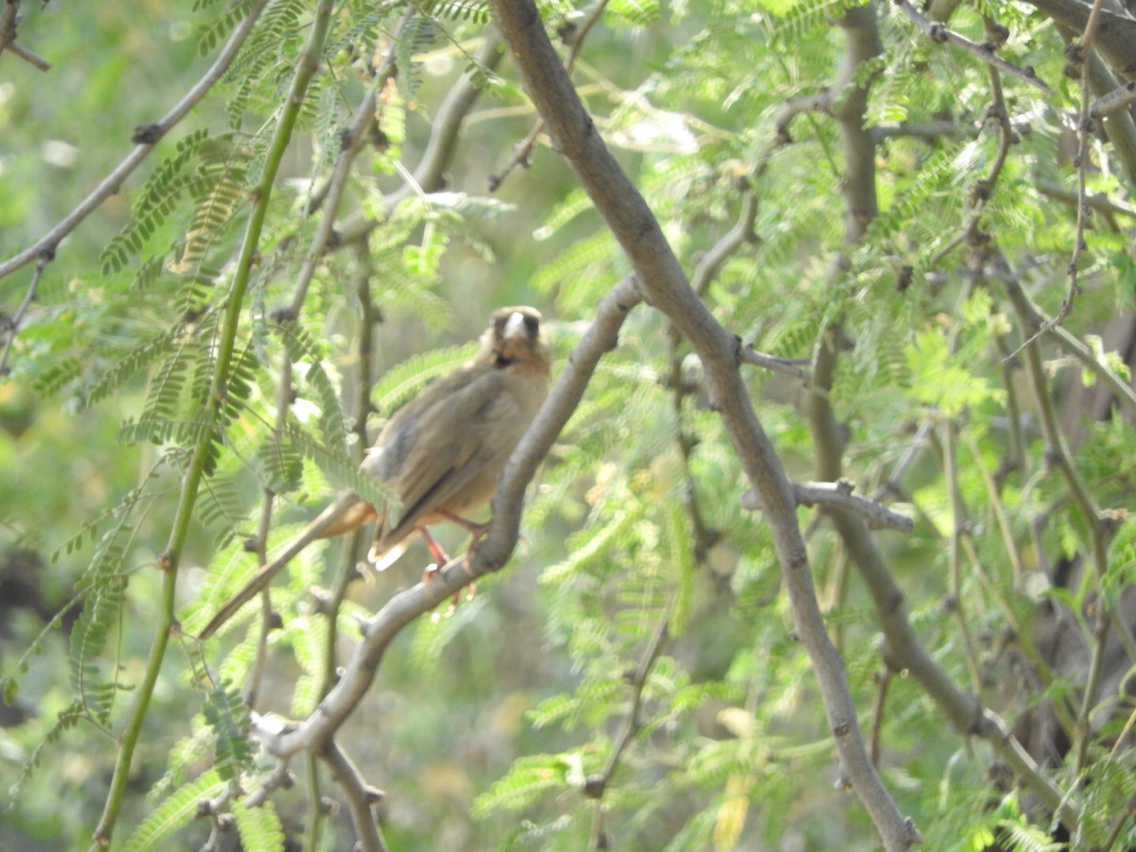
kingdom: Animalia
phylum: Chordata
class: Aves
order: Passeriformes
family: Passerellidae
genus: Melozone
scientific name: Melozone aberti
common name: Abert's towhee
